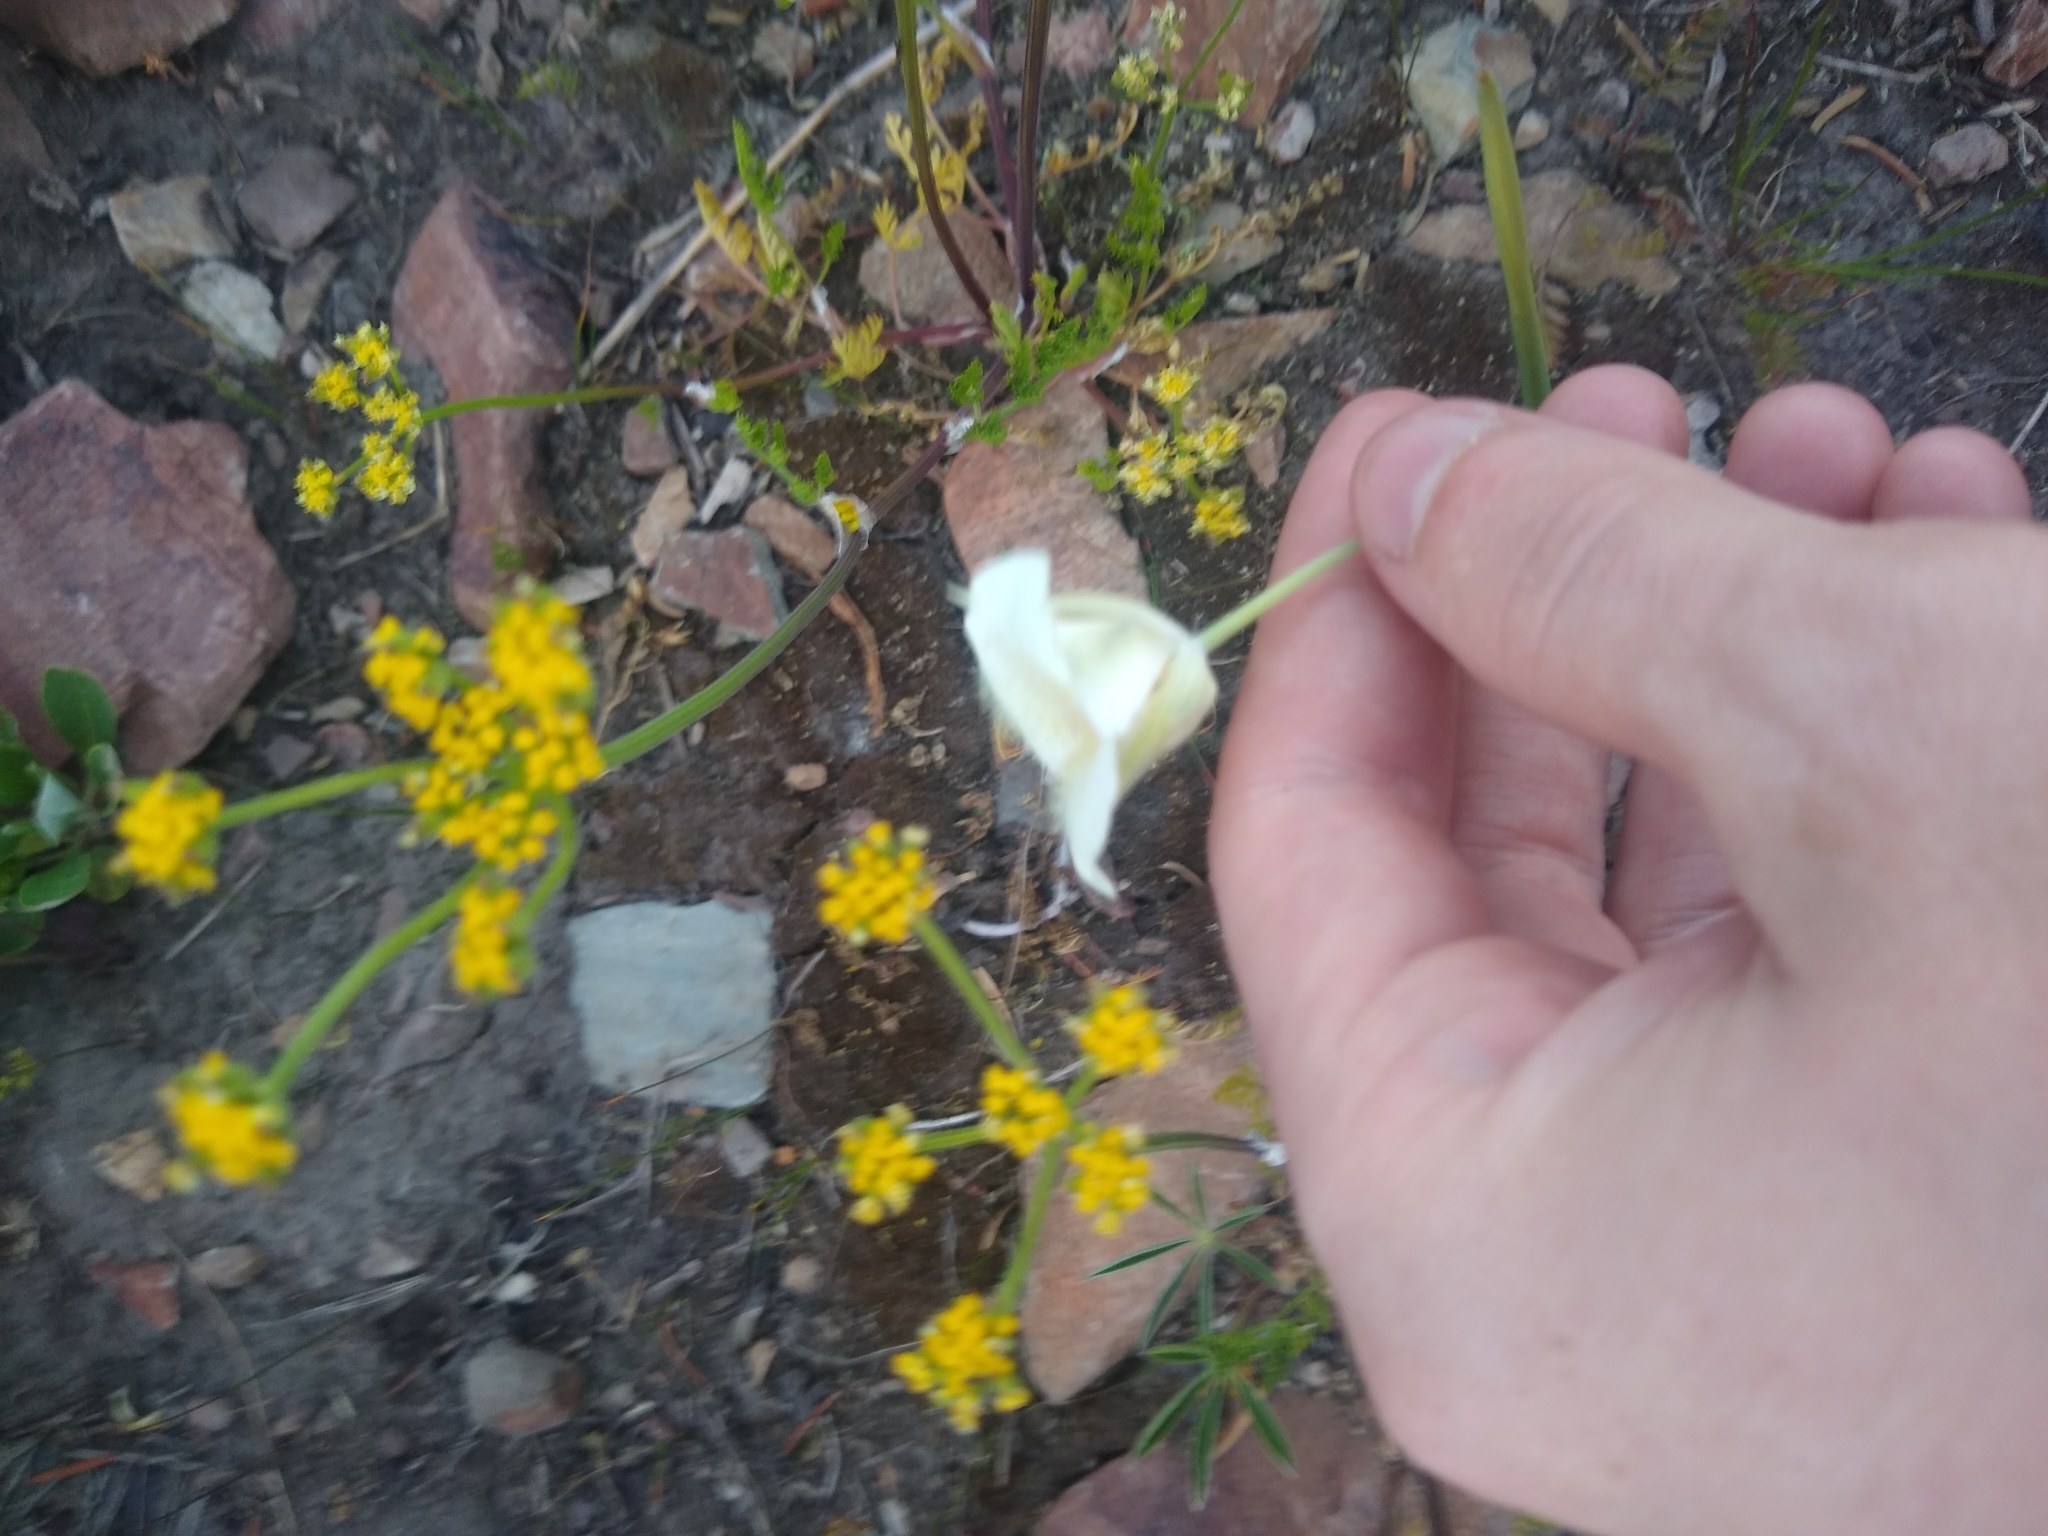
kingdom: Plantae
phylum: Tracheophyta
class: Liliopsida
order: Liliales
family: Liliaceae
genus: Calochortus
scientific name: Calochortus apiculatus
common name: Baker's mariposa lily
